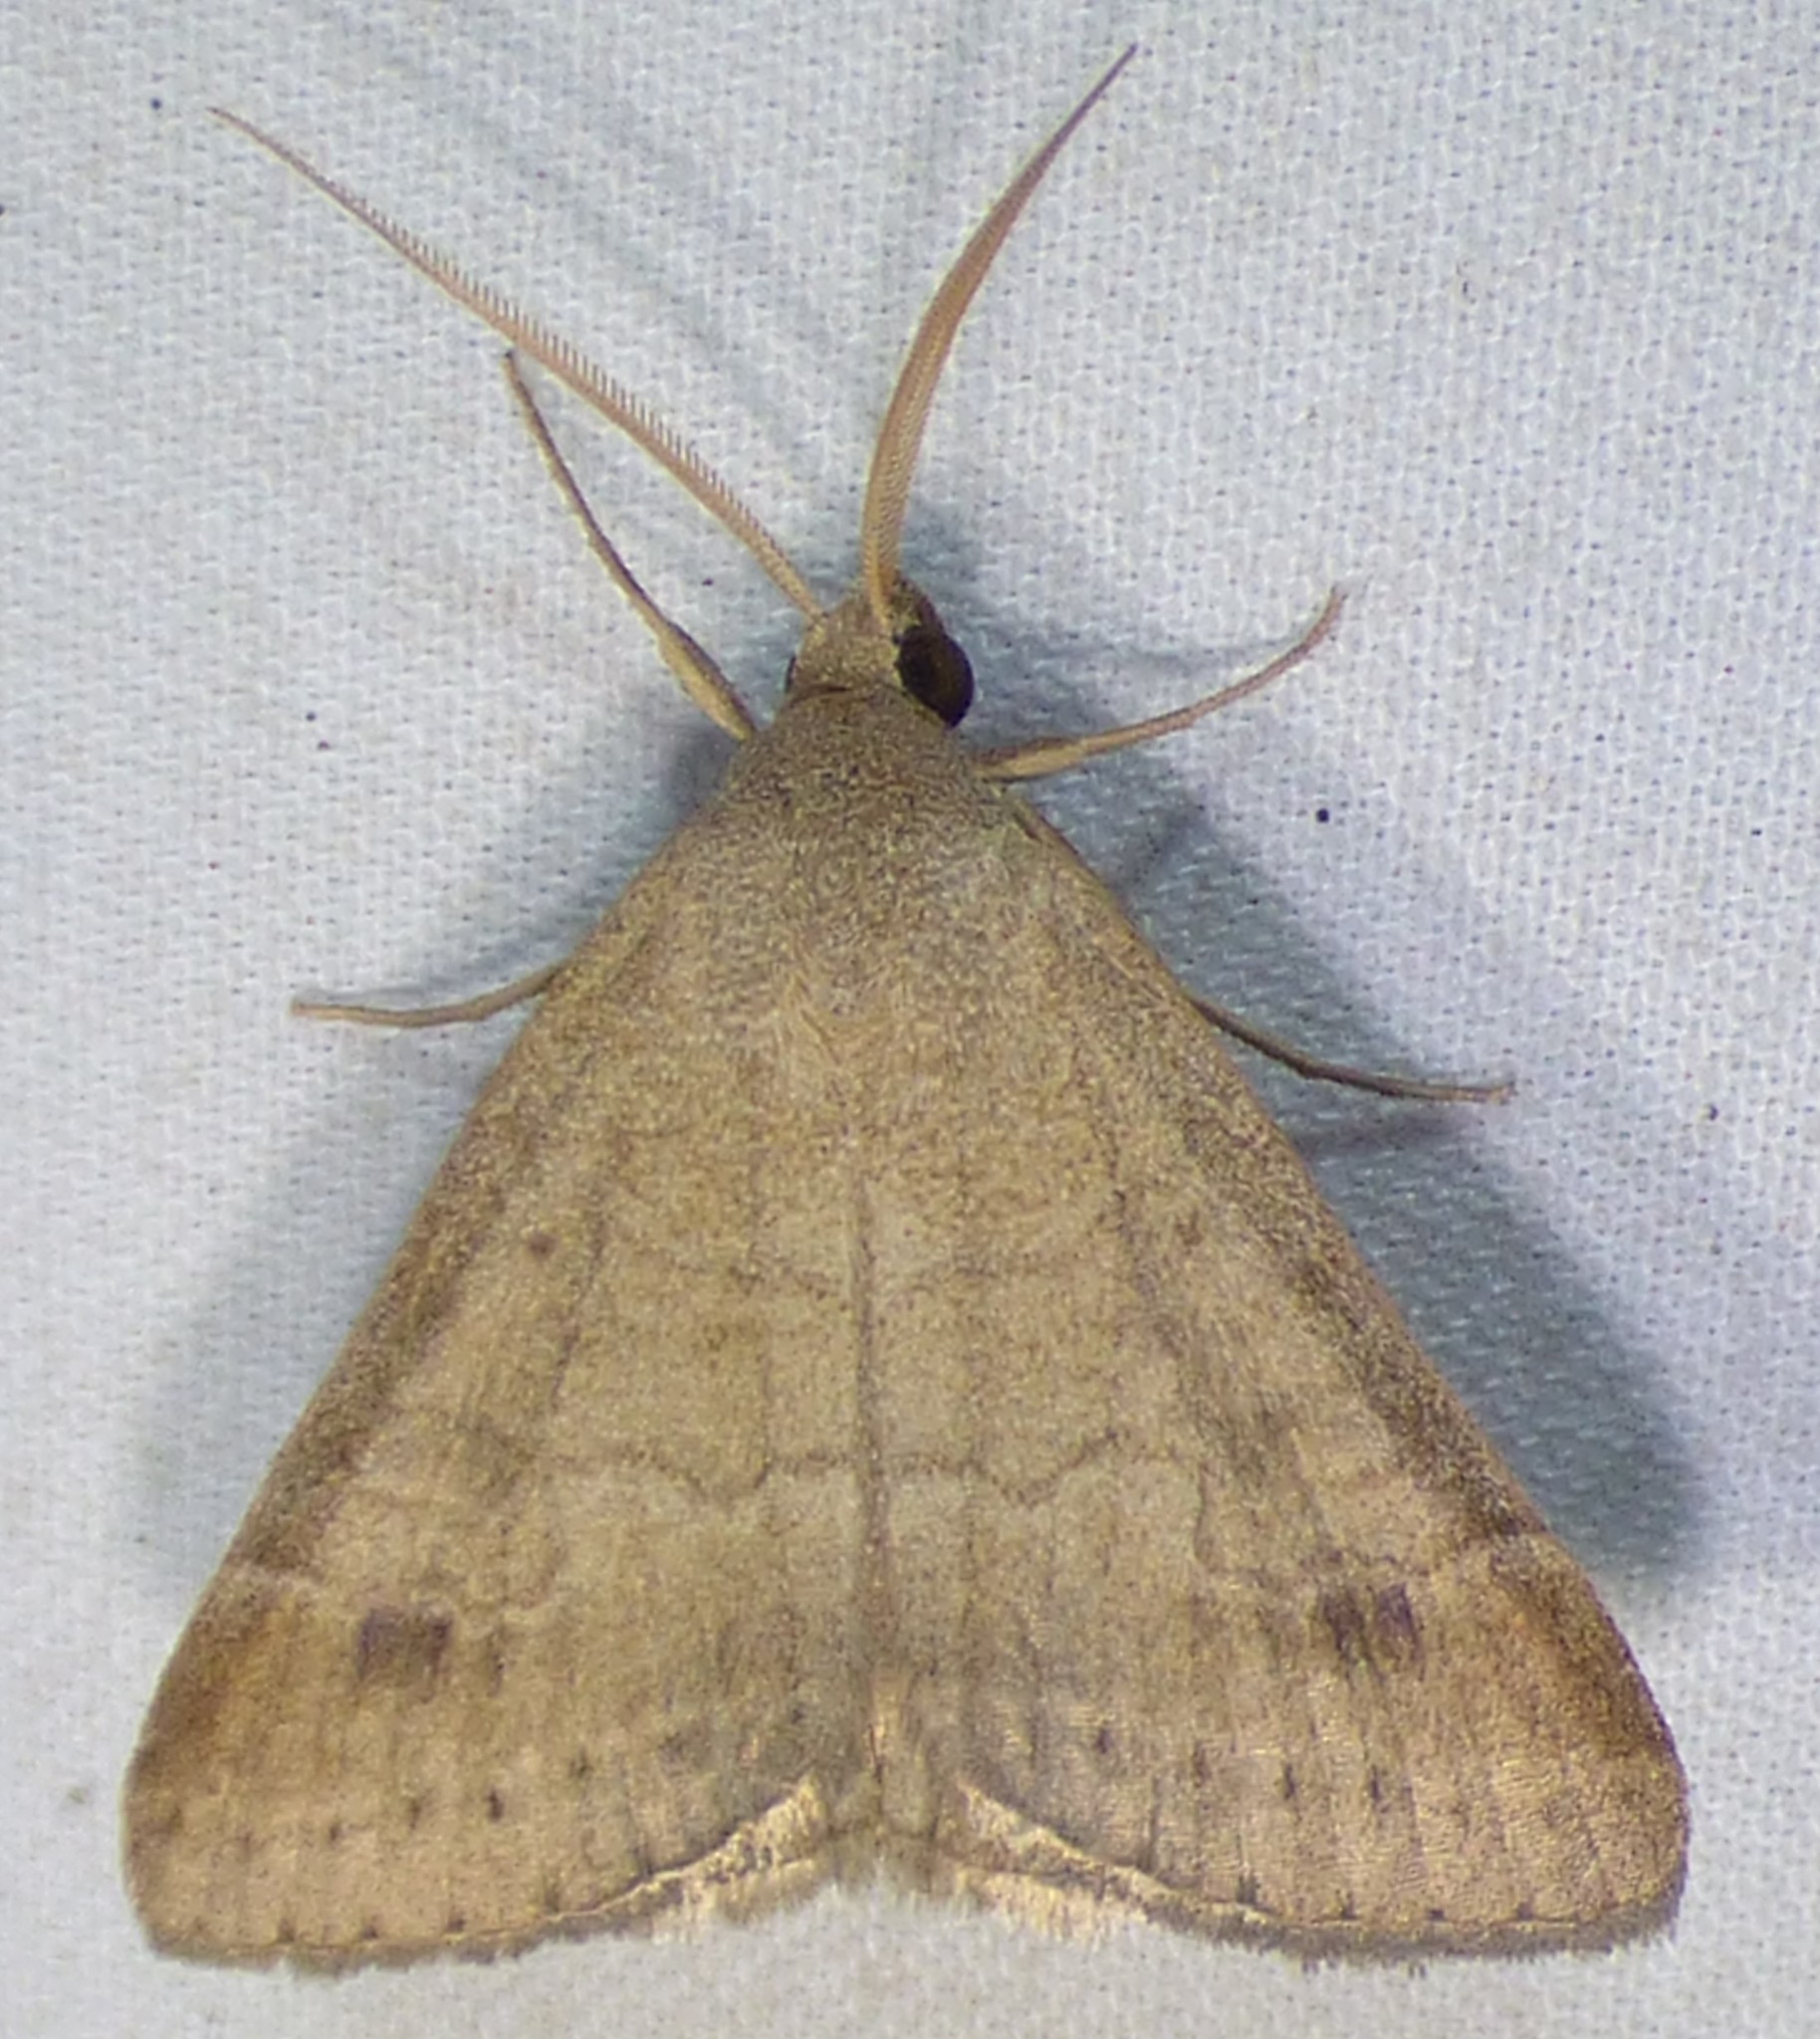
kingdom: Animalia
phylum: Arthropoda
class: Insecta
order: Lepidoptera
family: Erebidae
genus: Caenurgia
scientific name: Caenurgia chloropha
